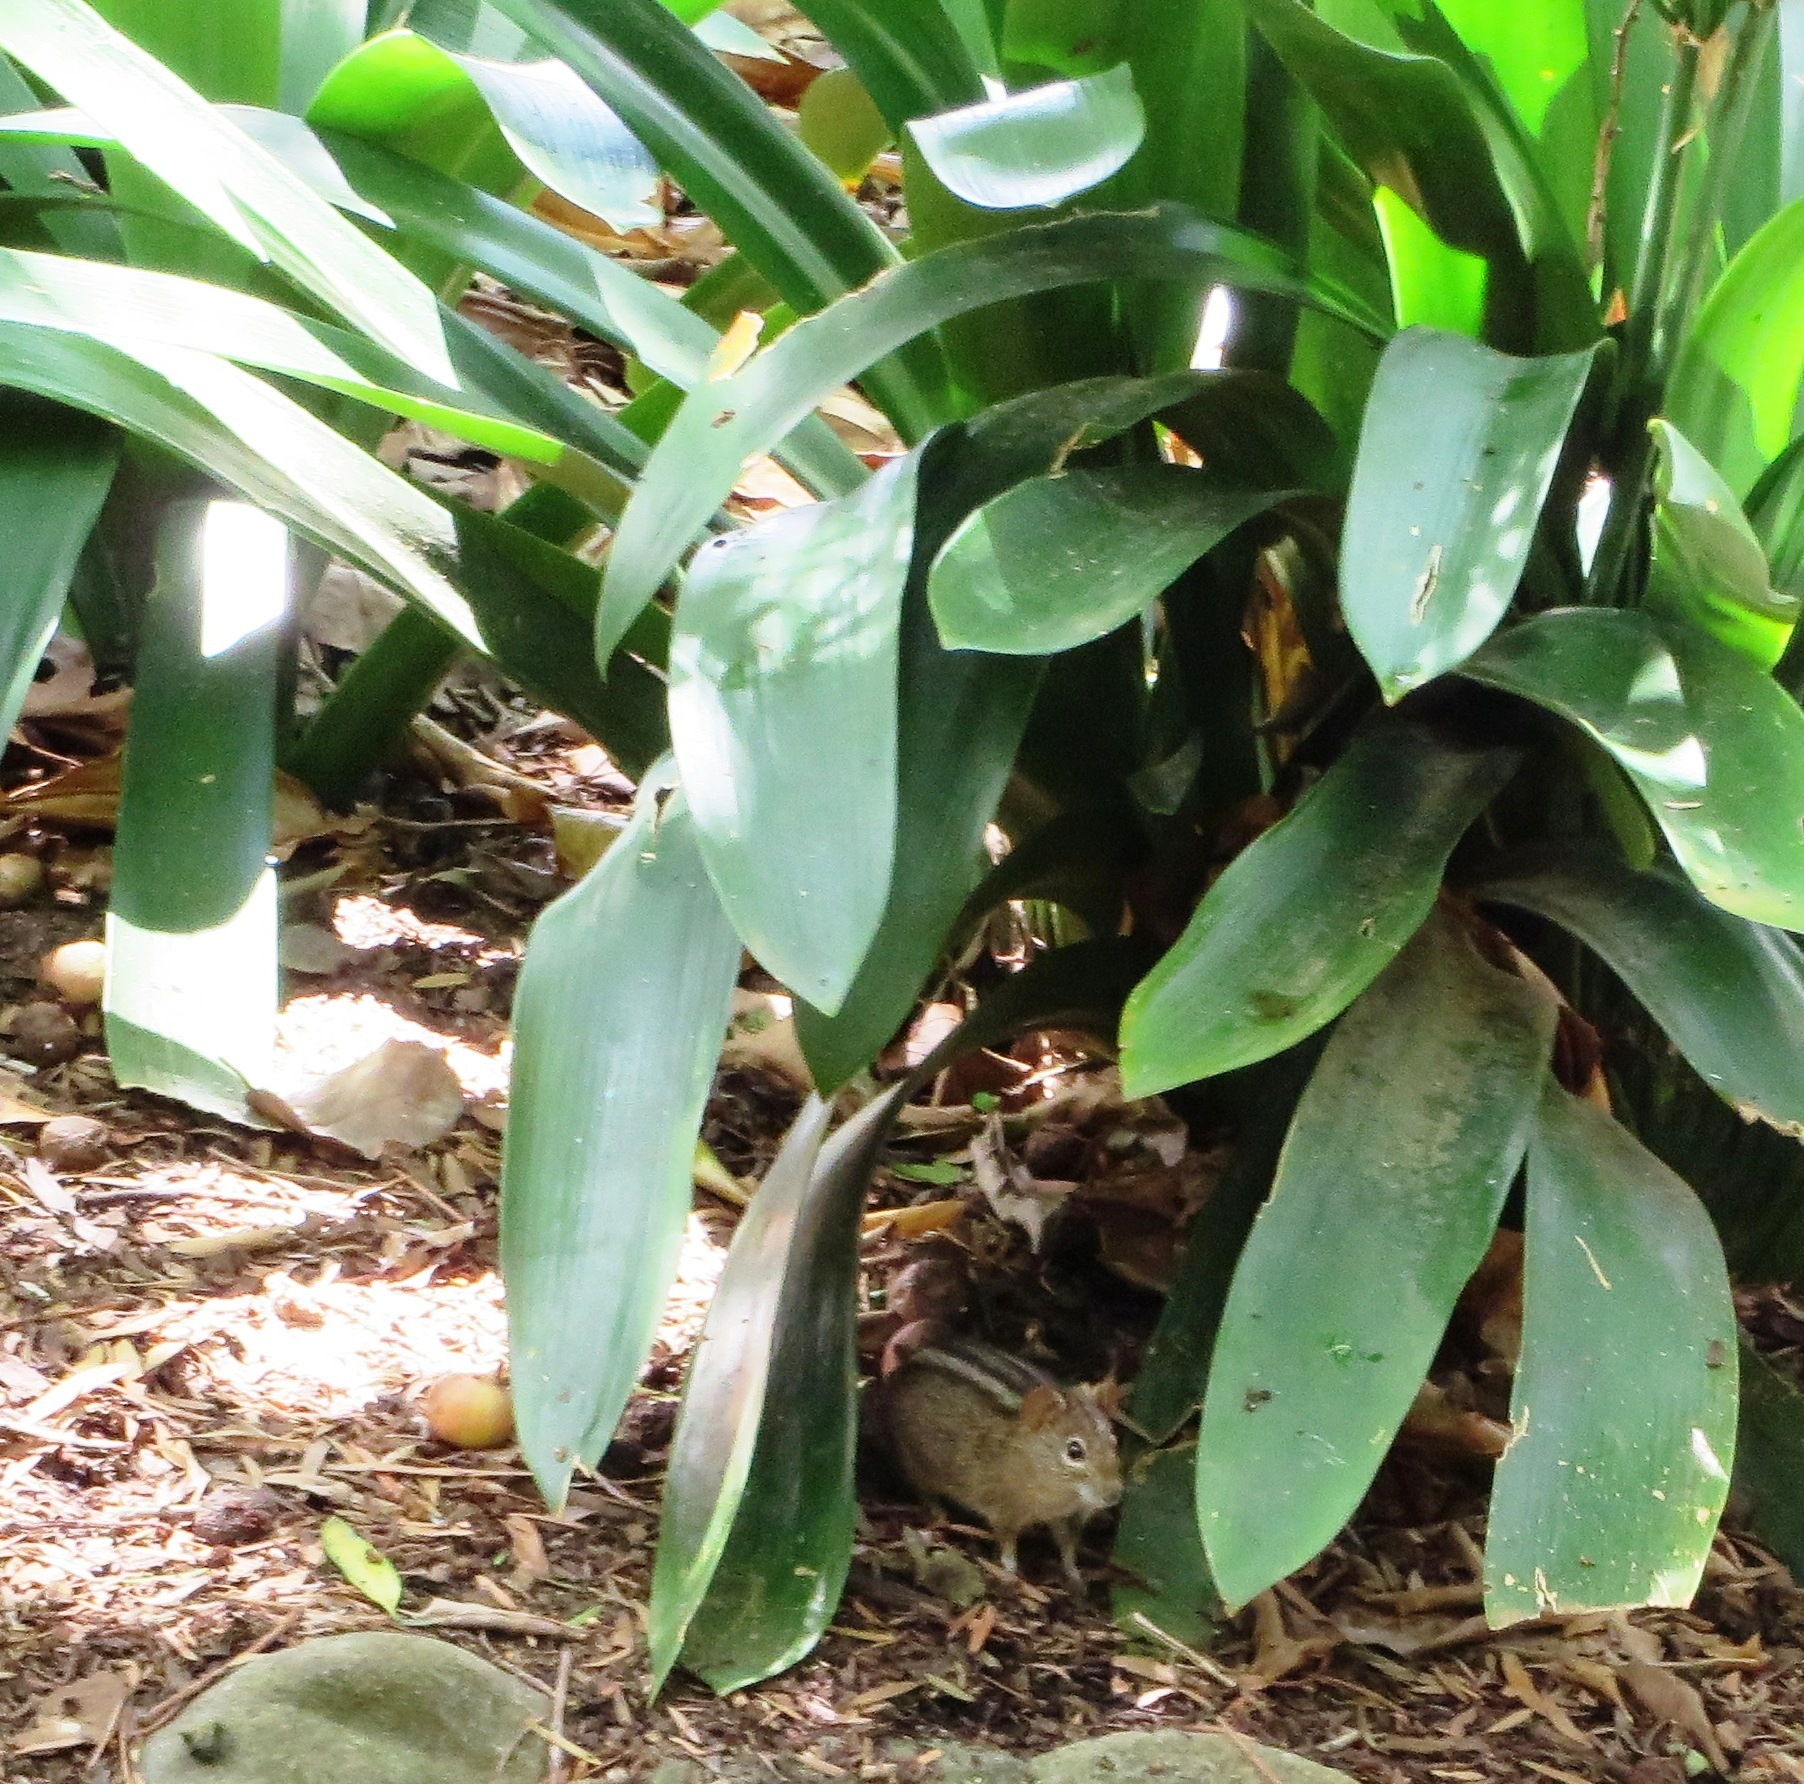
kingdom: Animalia
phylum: Chordata
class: Mammalia
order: Rodentia
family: Muridae
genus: Rhabdomys
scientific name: Rhabdomys pumilio
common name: Xeric four-striped grass rat
